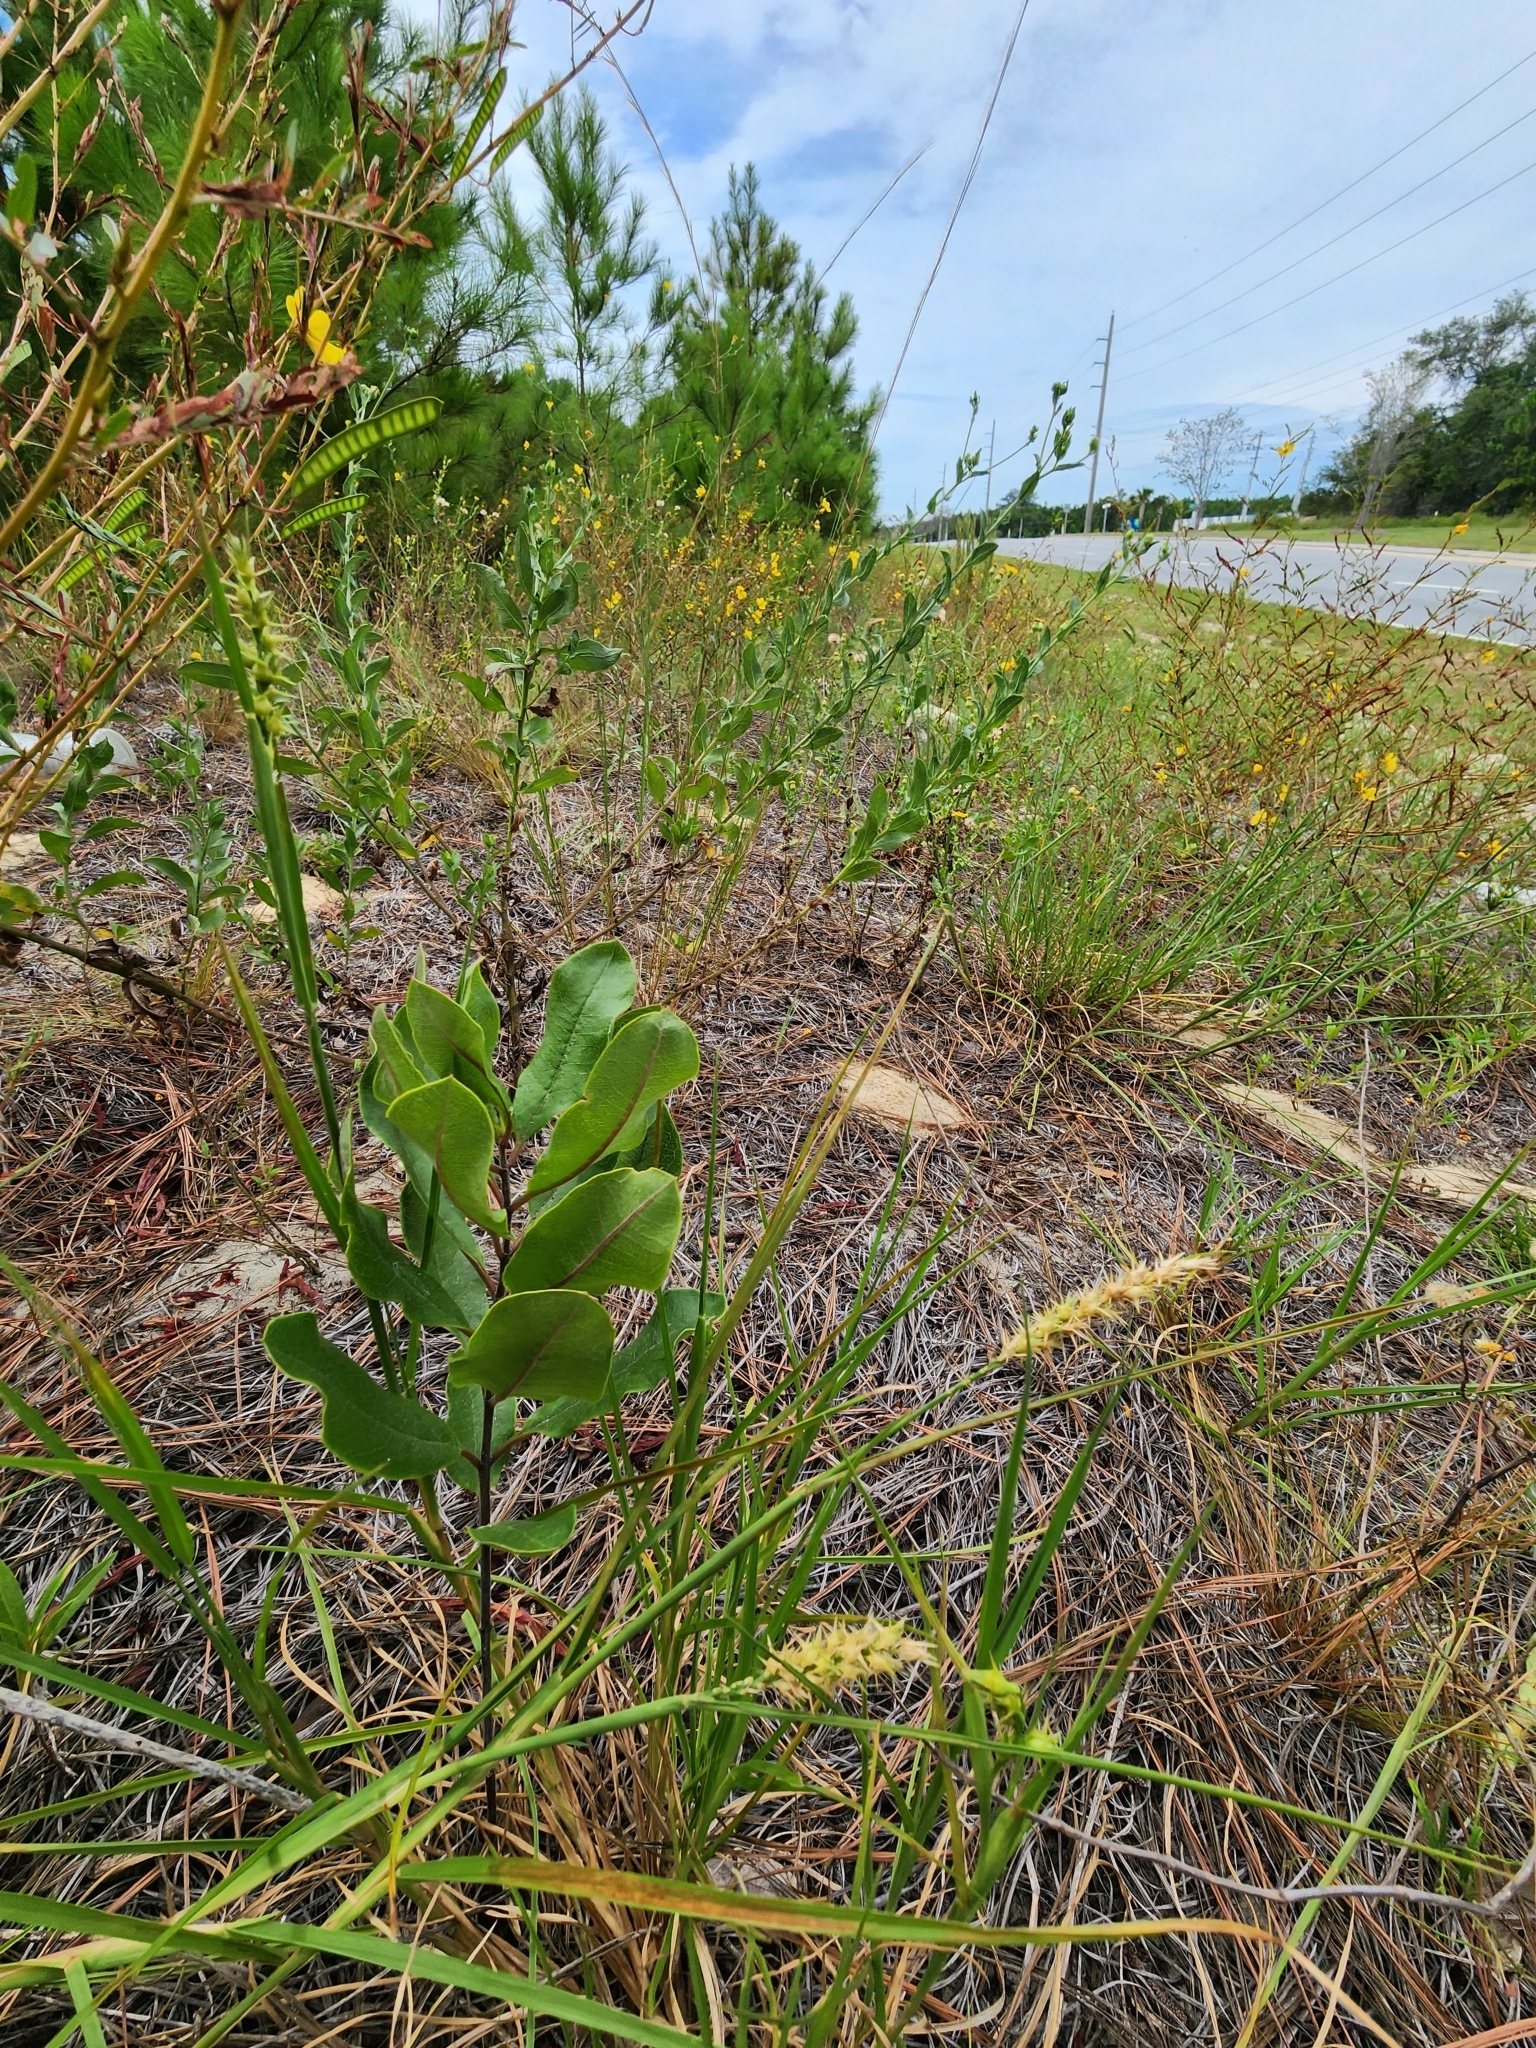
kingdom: Plantae
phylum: Tracheophyta
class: Magnoliopsida
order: Gentianales
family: Apocynaceae
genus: Asclepias
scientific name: Asclepias tomentosa
